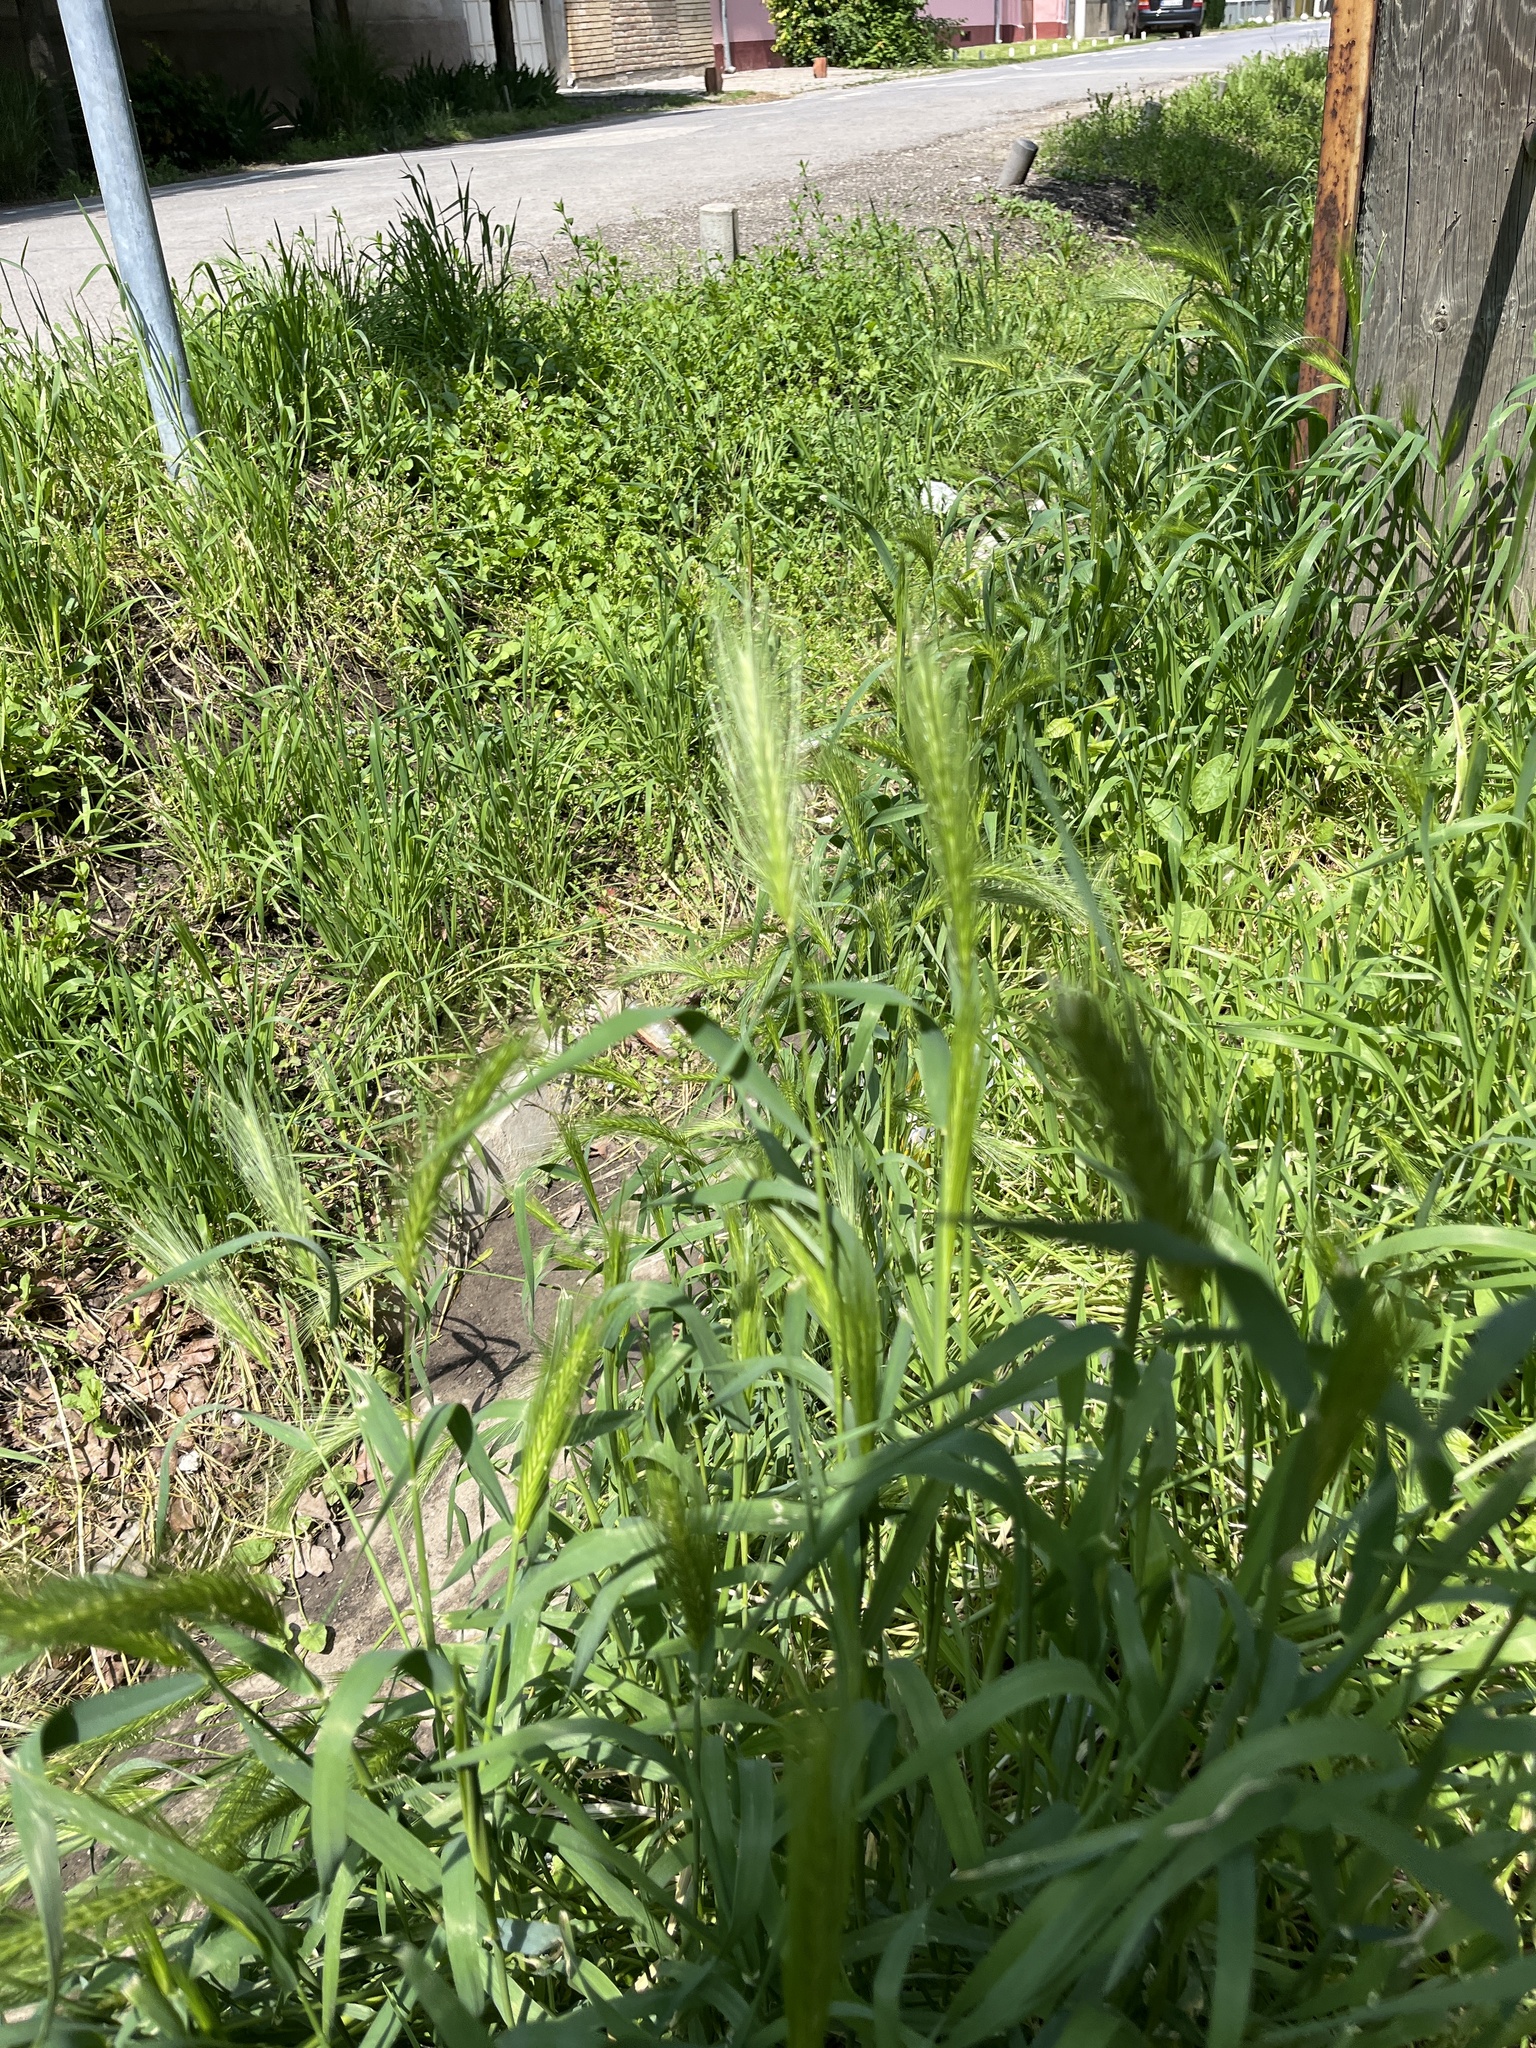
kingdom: Plantae
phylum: Tracheophyta
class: Liliopsida
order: Poales
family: Poaceae
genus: Hordeum
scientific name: Hordeum murinum
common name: Wall barley
